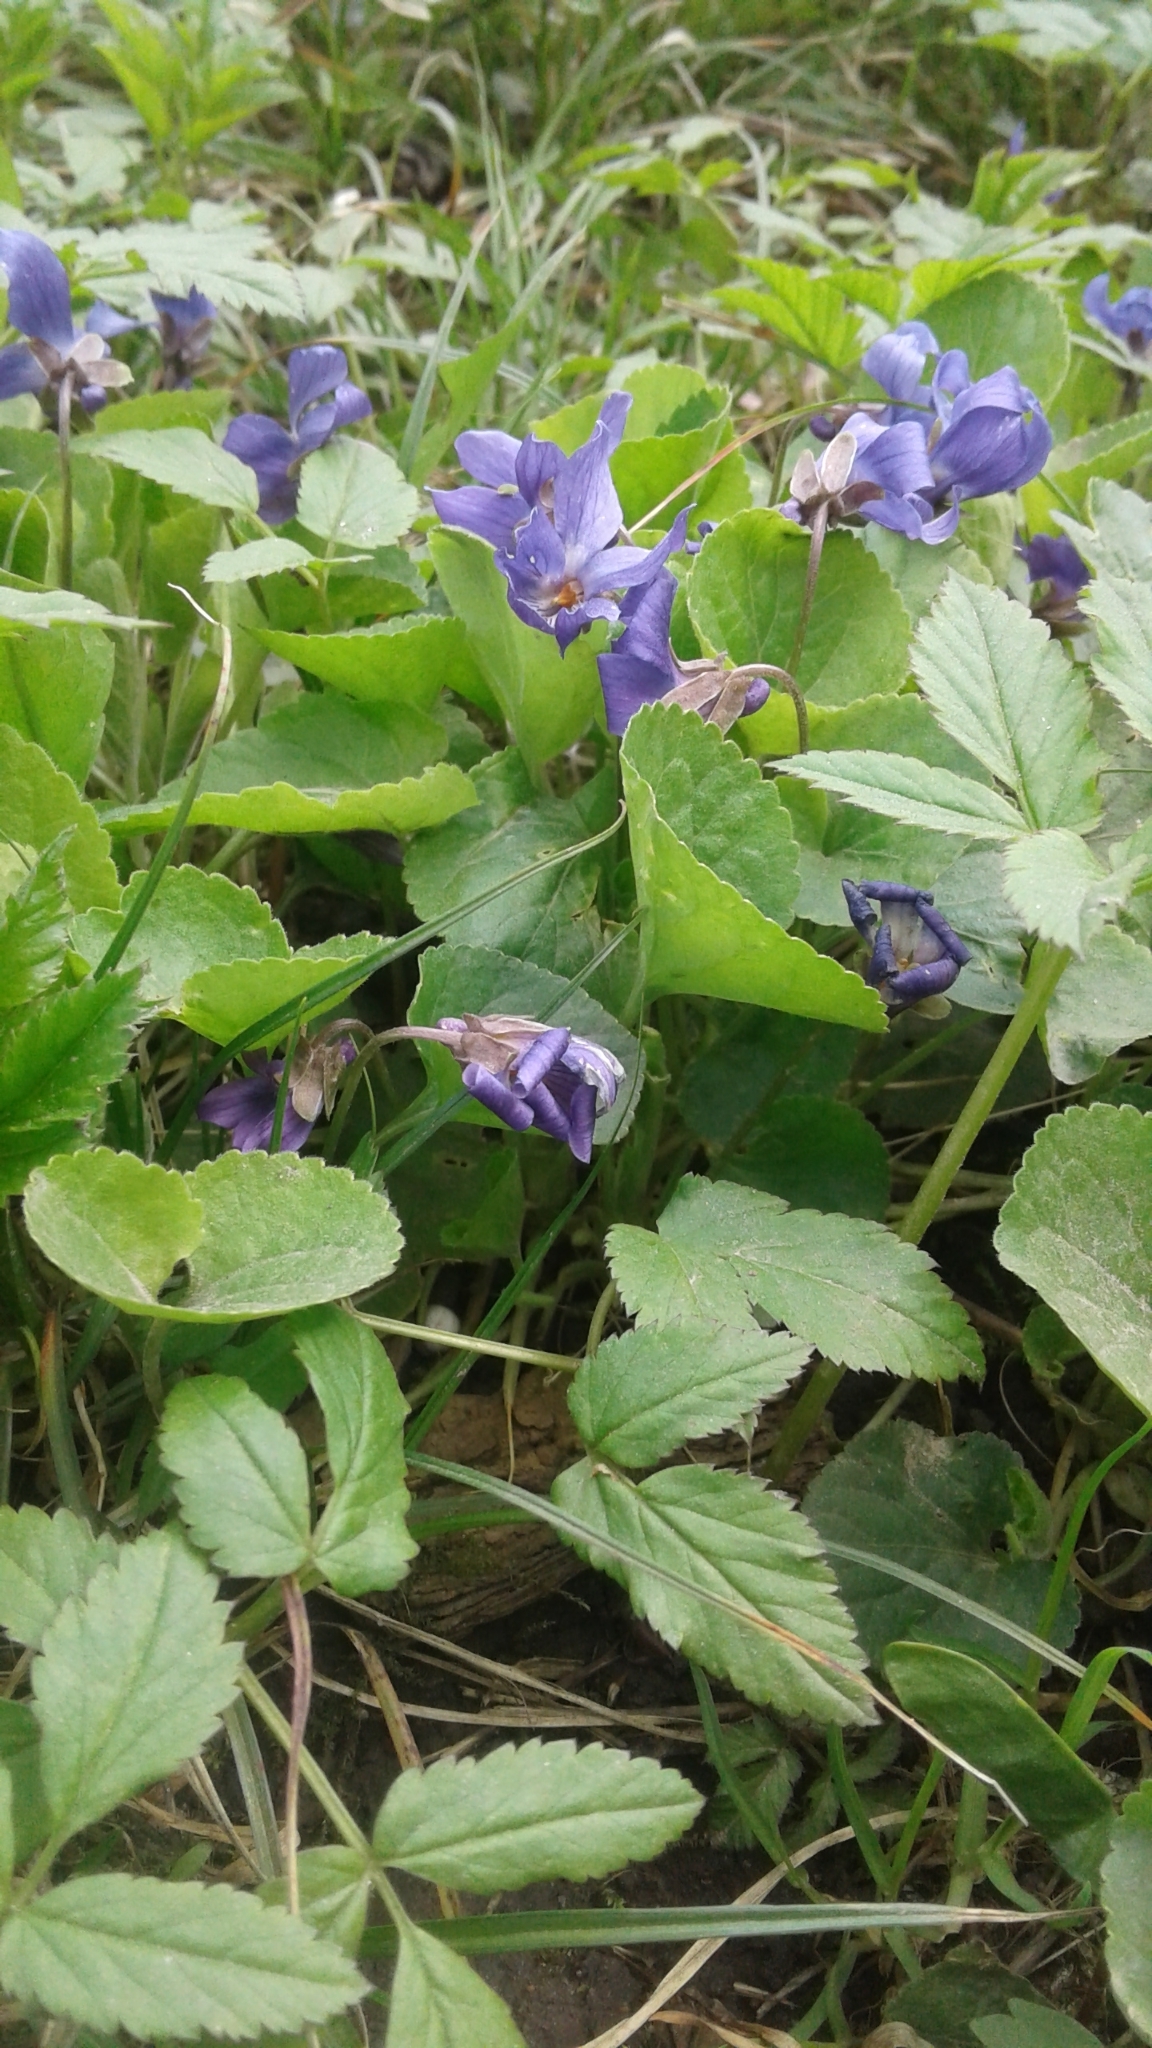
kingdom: Plantae
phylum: Tracheophyta
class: Magnoliopsida
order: Malpighiales
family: Violaceae
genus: Viola
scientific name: Viola odorata
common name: Sweet violet
